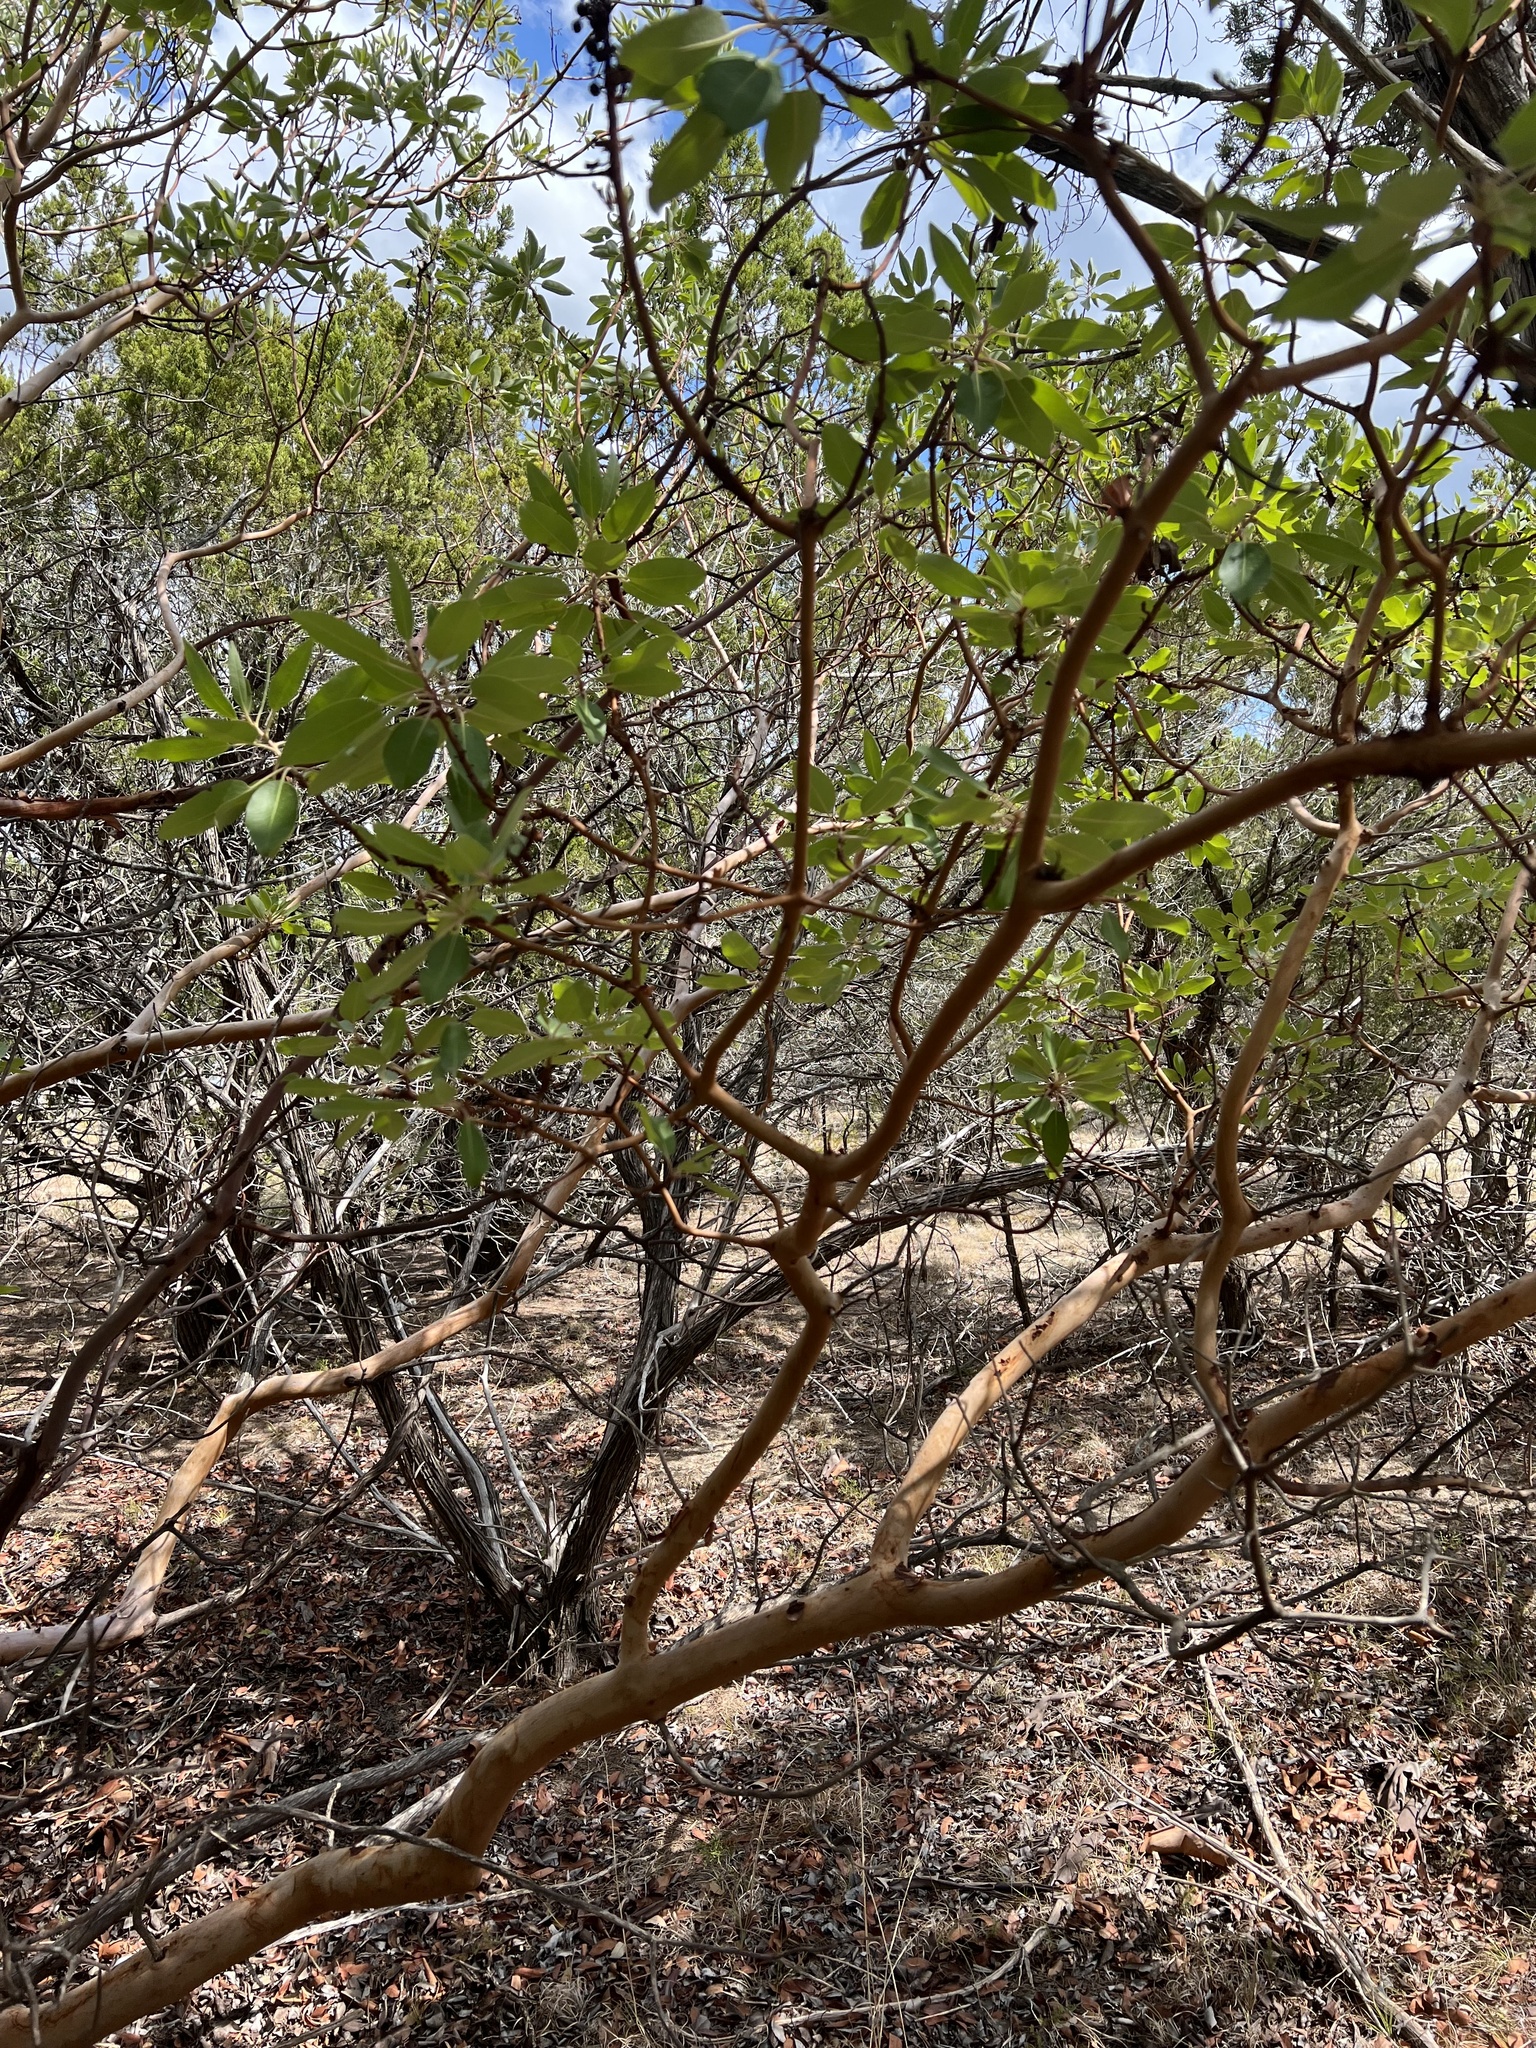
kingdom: Plantae
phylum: Tracheophyta
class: Magnoliopsida
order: Ericales
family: Ericaceae
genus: Arbutus
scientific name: Arbutus xalapensis
